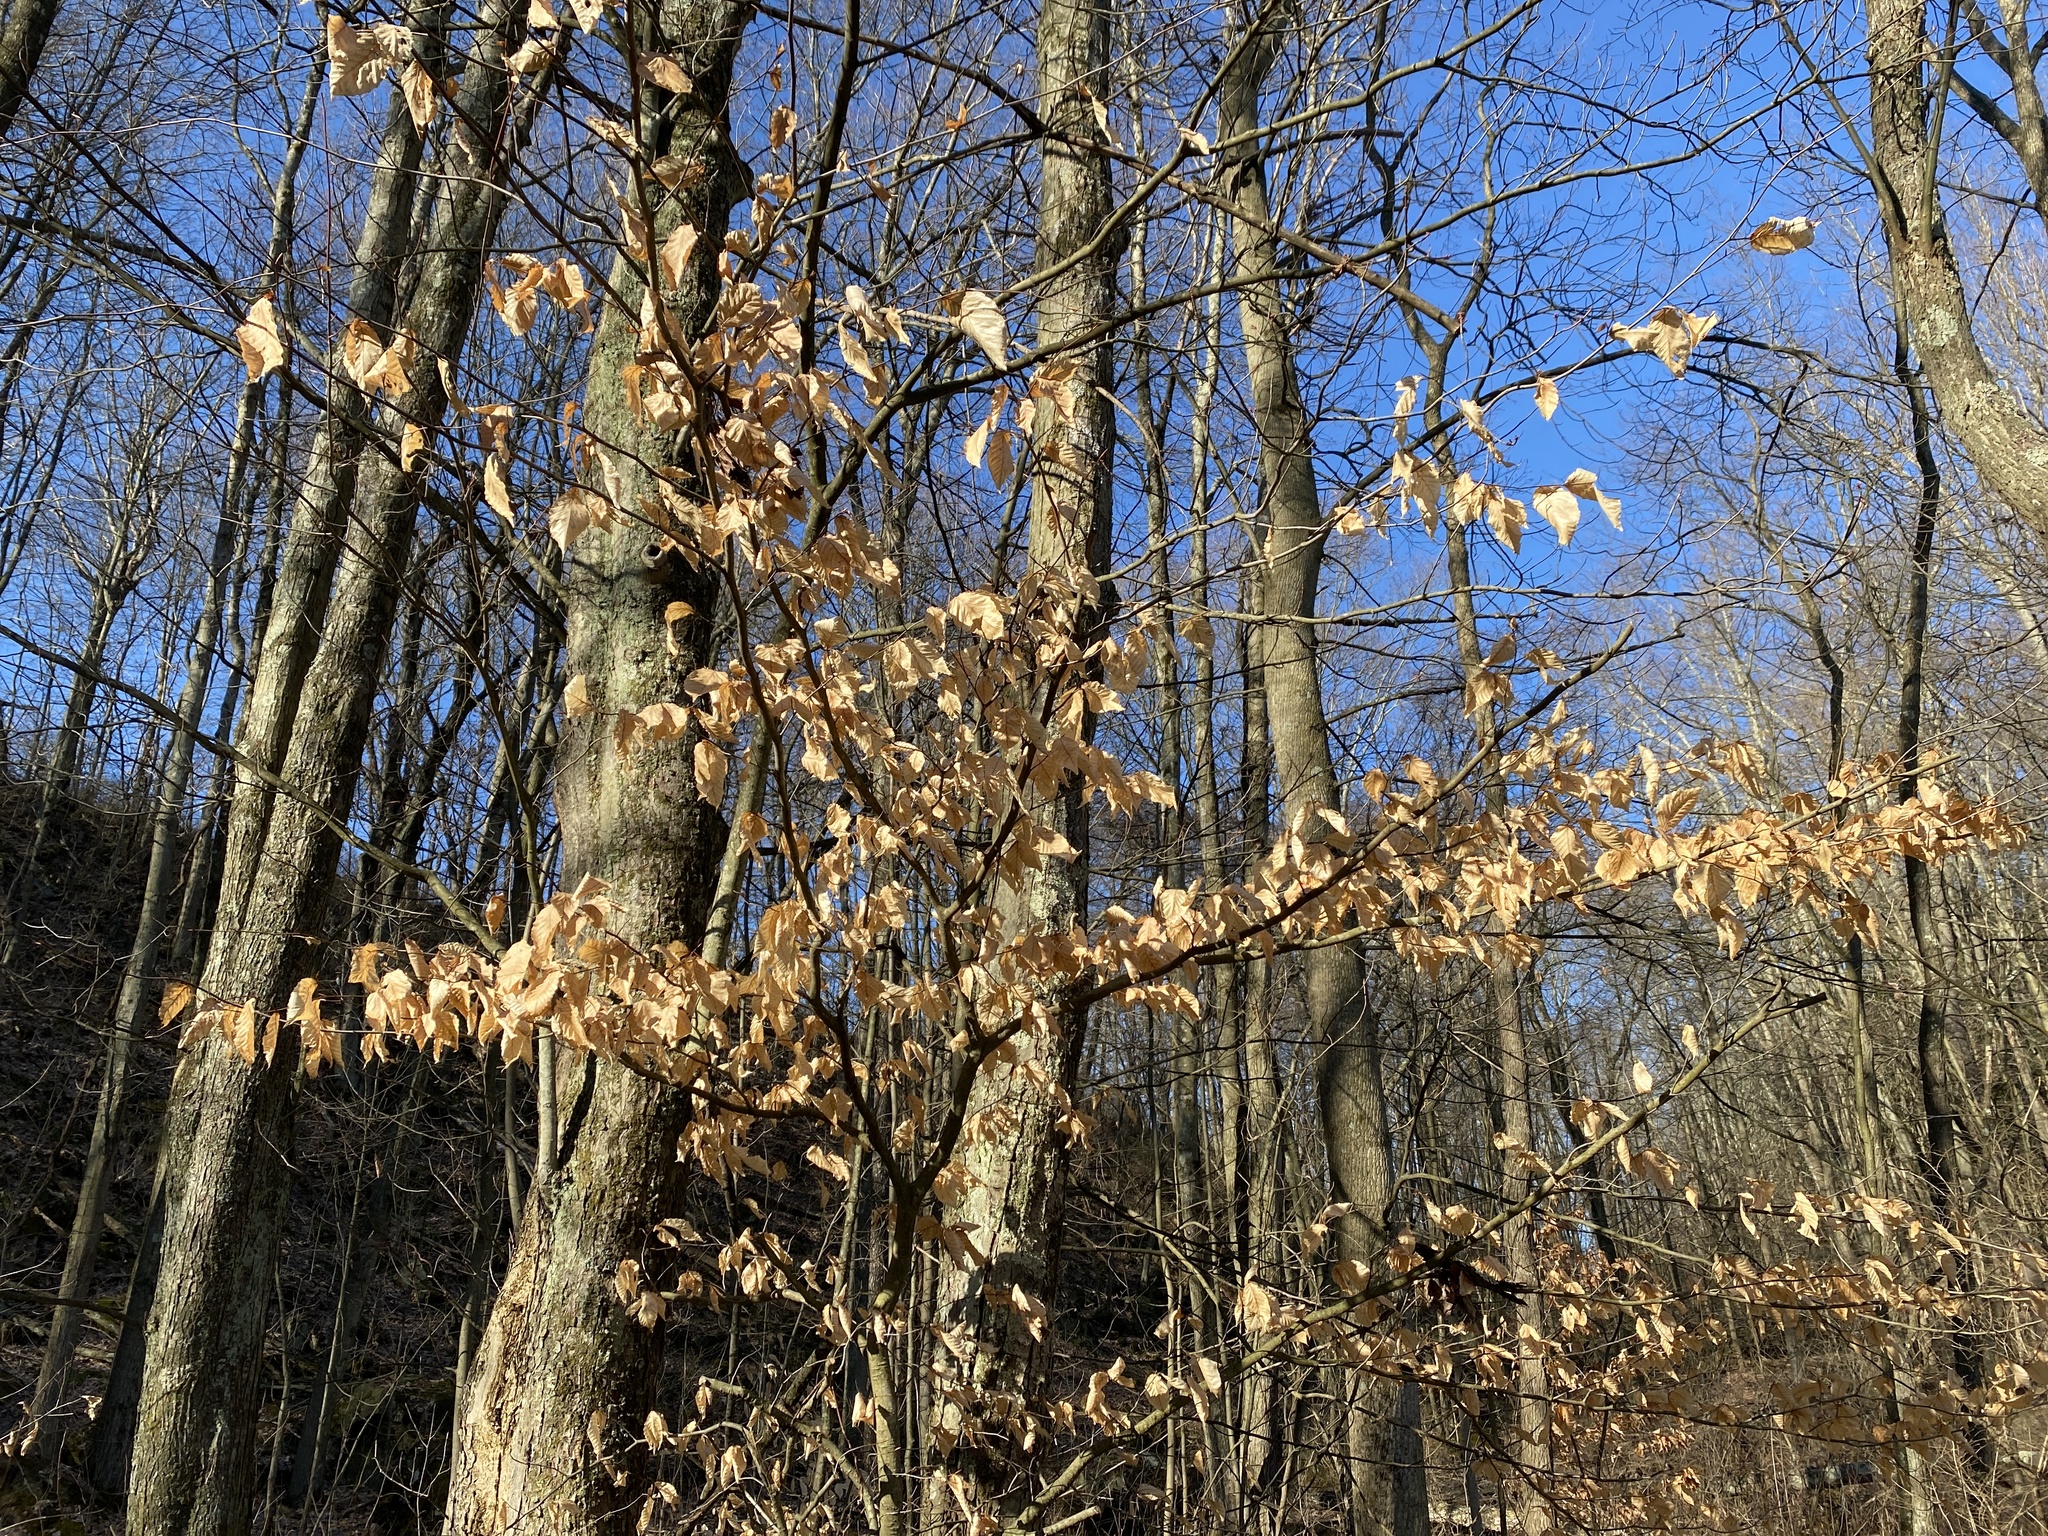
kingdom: Plantae
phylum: Tracheophyta
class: Magnoliopsida
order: Fagales
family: Fagaceae
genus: Fagus
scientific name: Fagus grandifolia
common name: American beech
